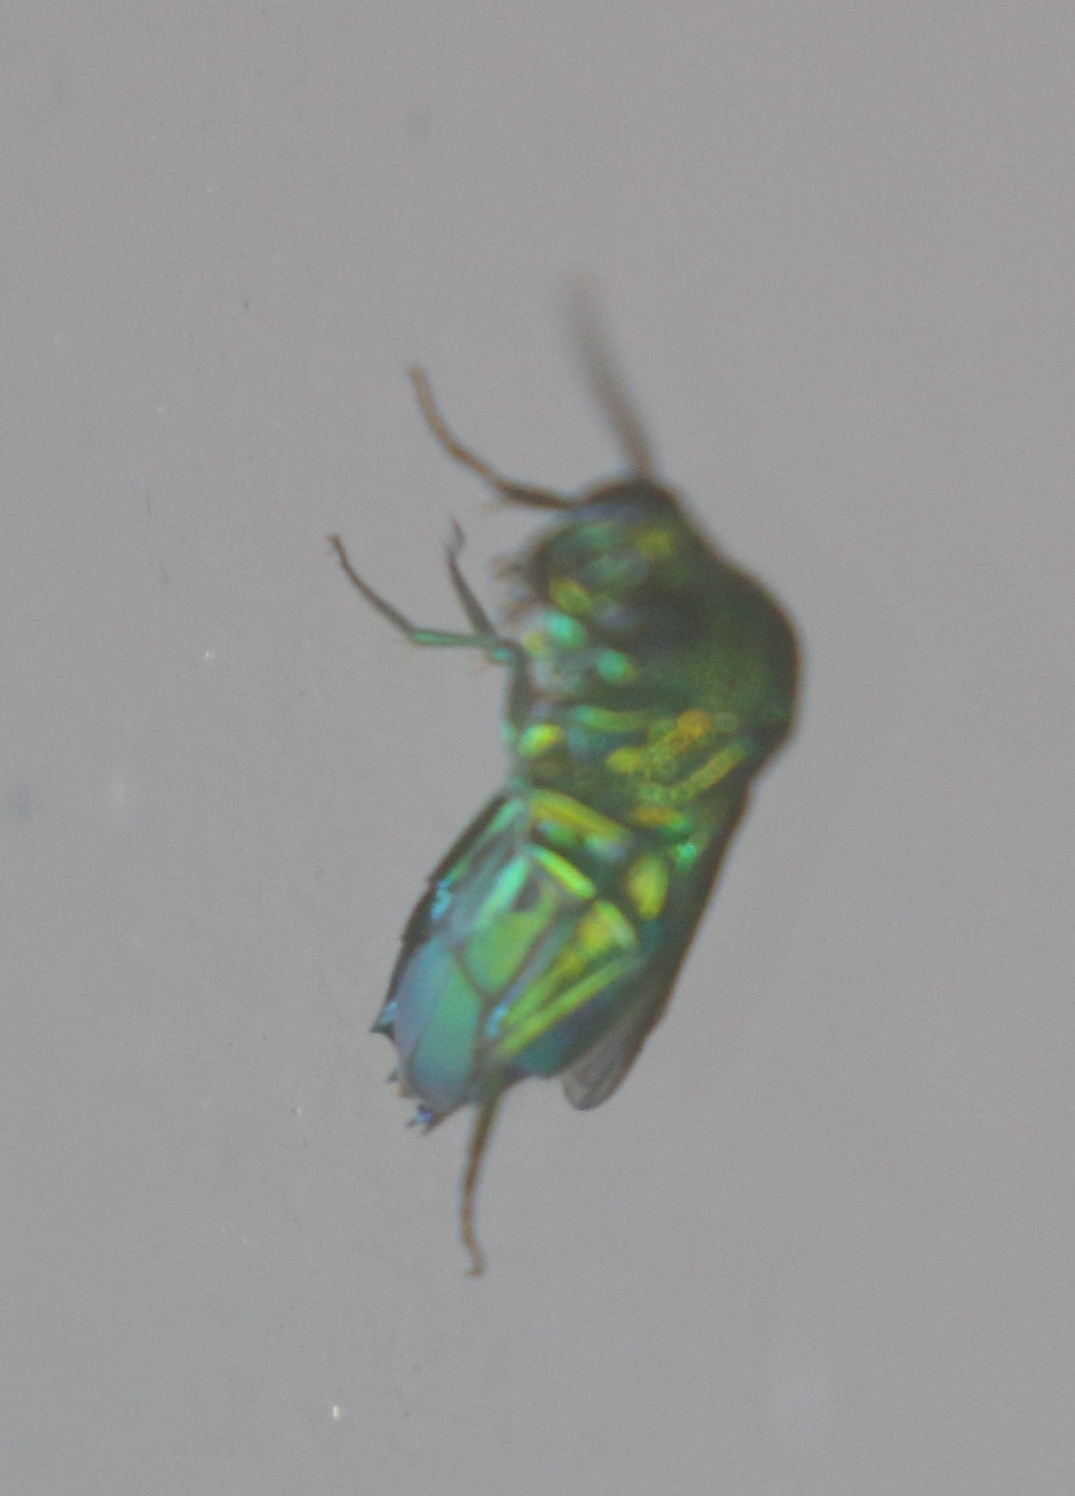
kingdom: Animalia
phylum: Arthropoda
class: Insecta
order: Hymenoptera
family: Chrysididae
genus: Chrysis
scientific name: Chrysis lincea
